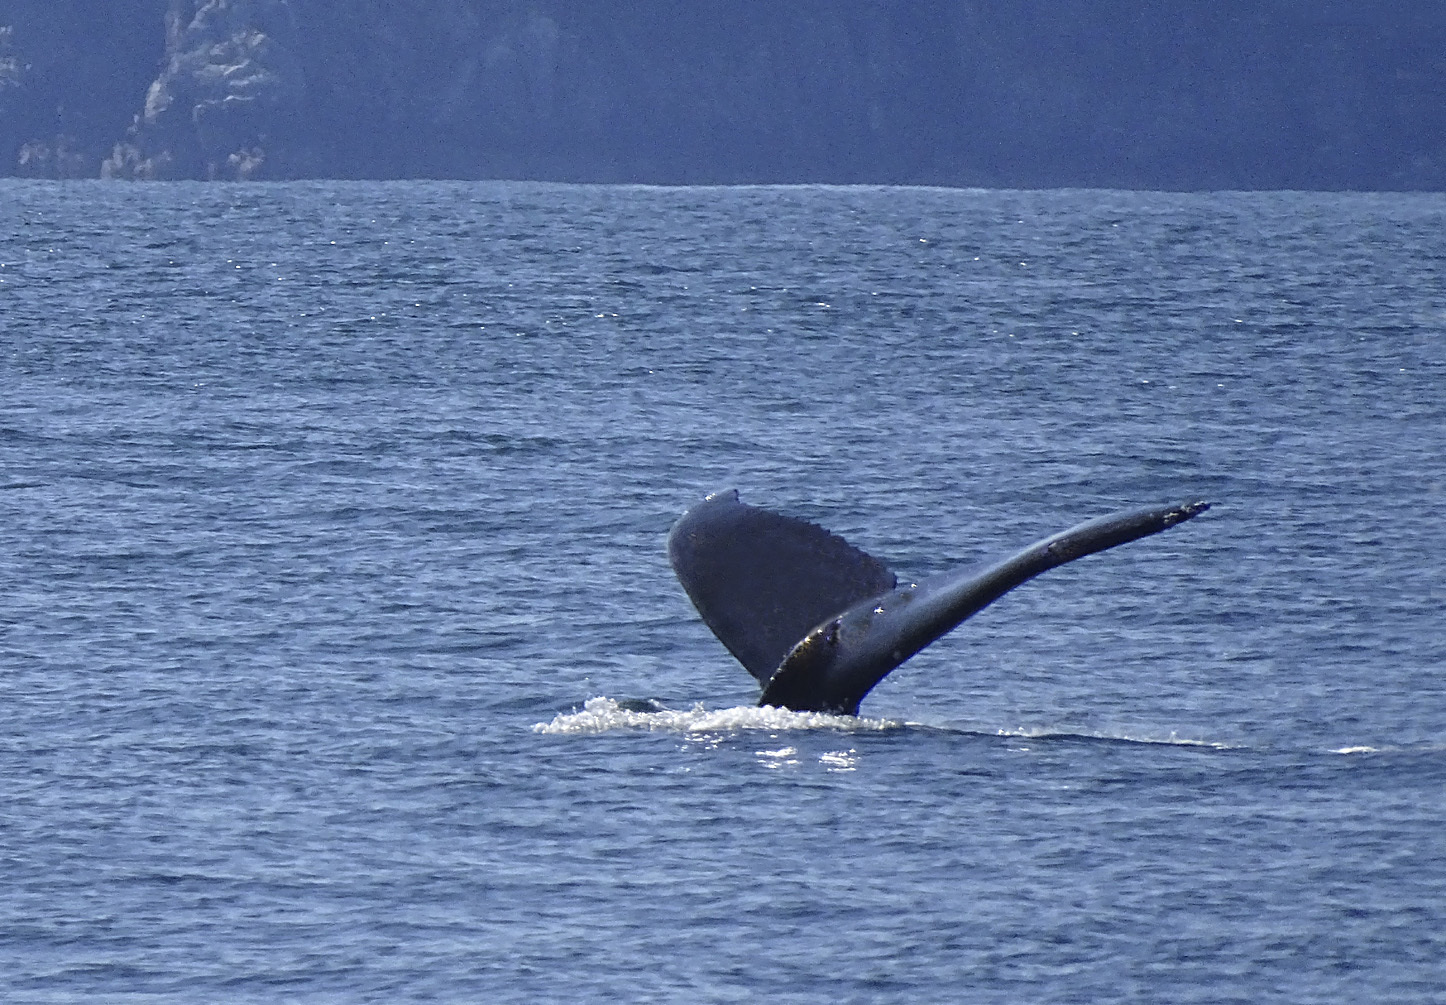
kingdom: Animalia
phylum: Chordata
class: Mammalia
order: Cetacea
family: Balaenopteridae
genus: Megaptera
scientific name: Megaptera novaeangliae
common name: Humpback whale
